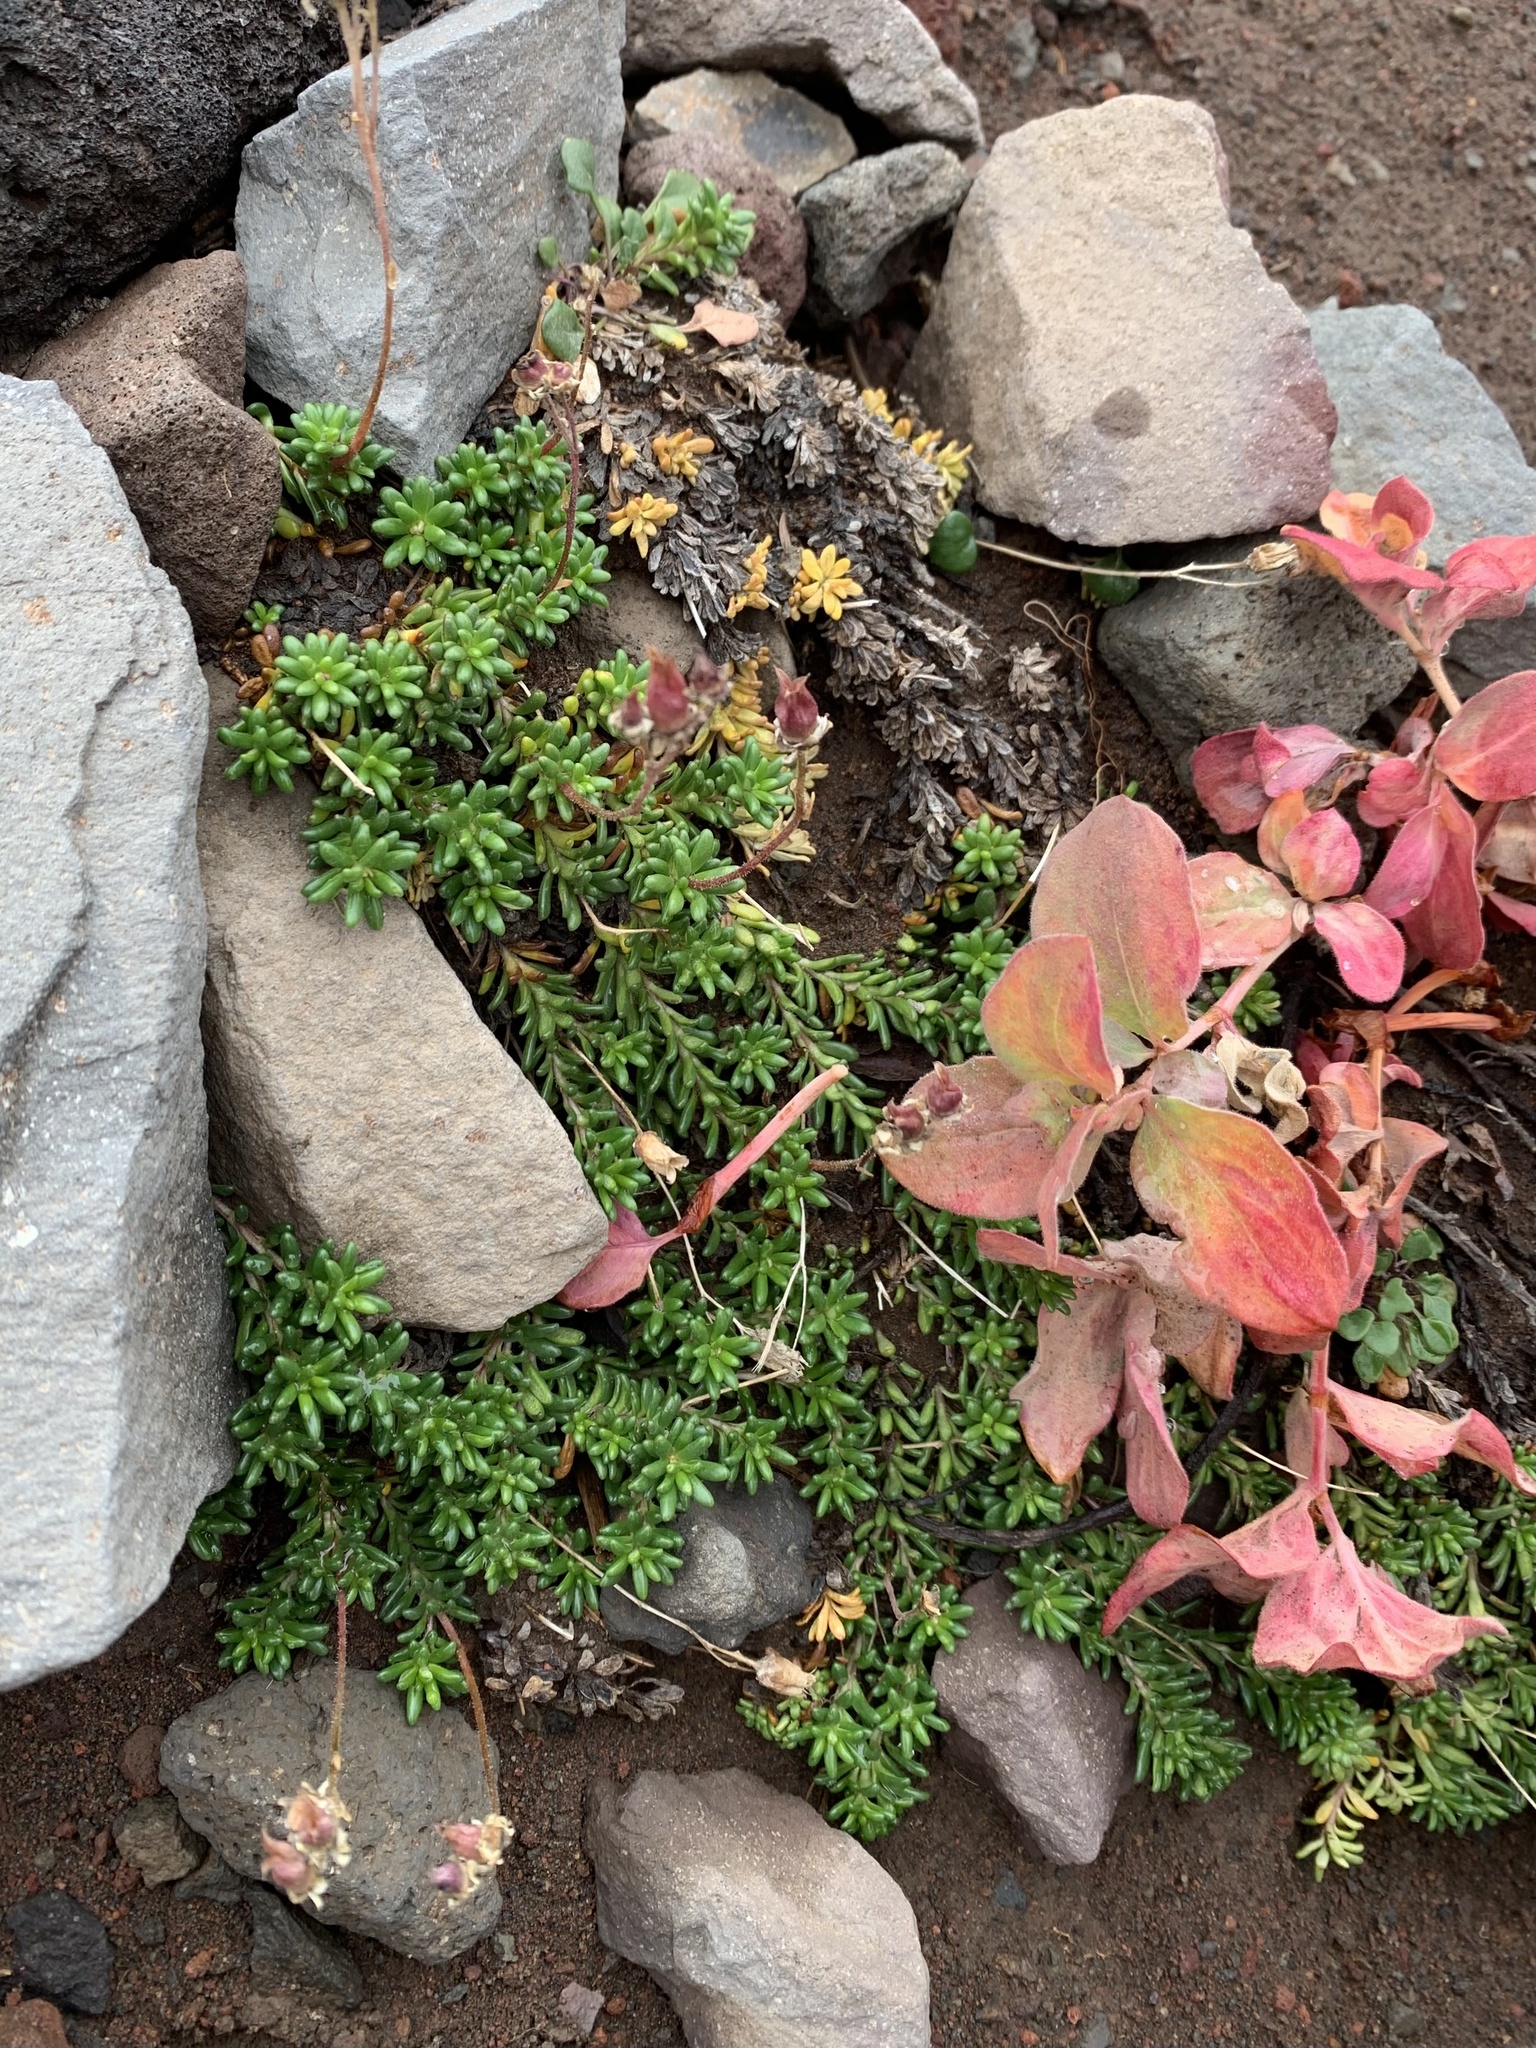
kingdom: Plantae
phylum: Tracheophyta
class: Magnoliopsida
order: Saxifragales
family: Saxifragaceae
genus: Micranthes
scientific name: Micranthes tolmiei
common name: Tolmie's saxifrage
